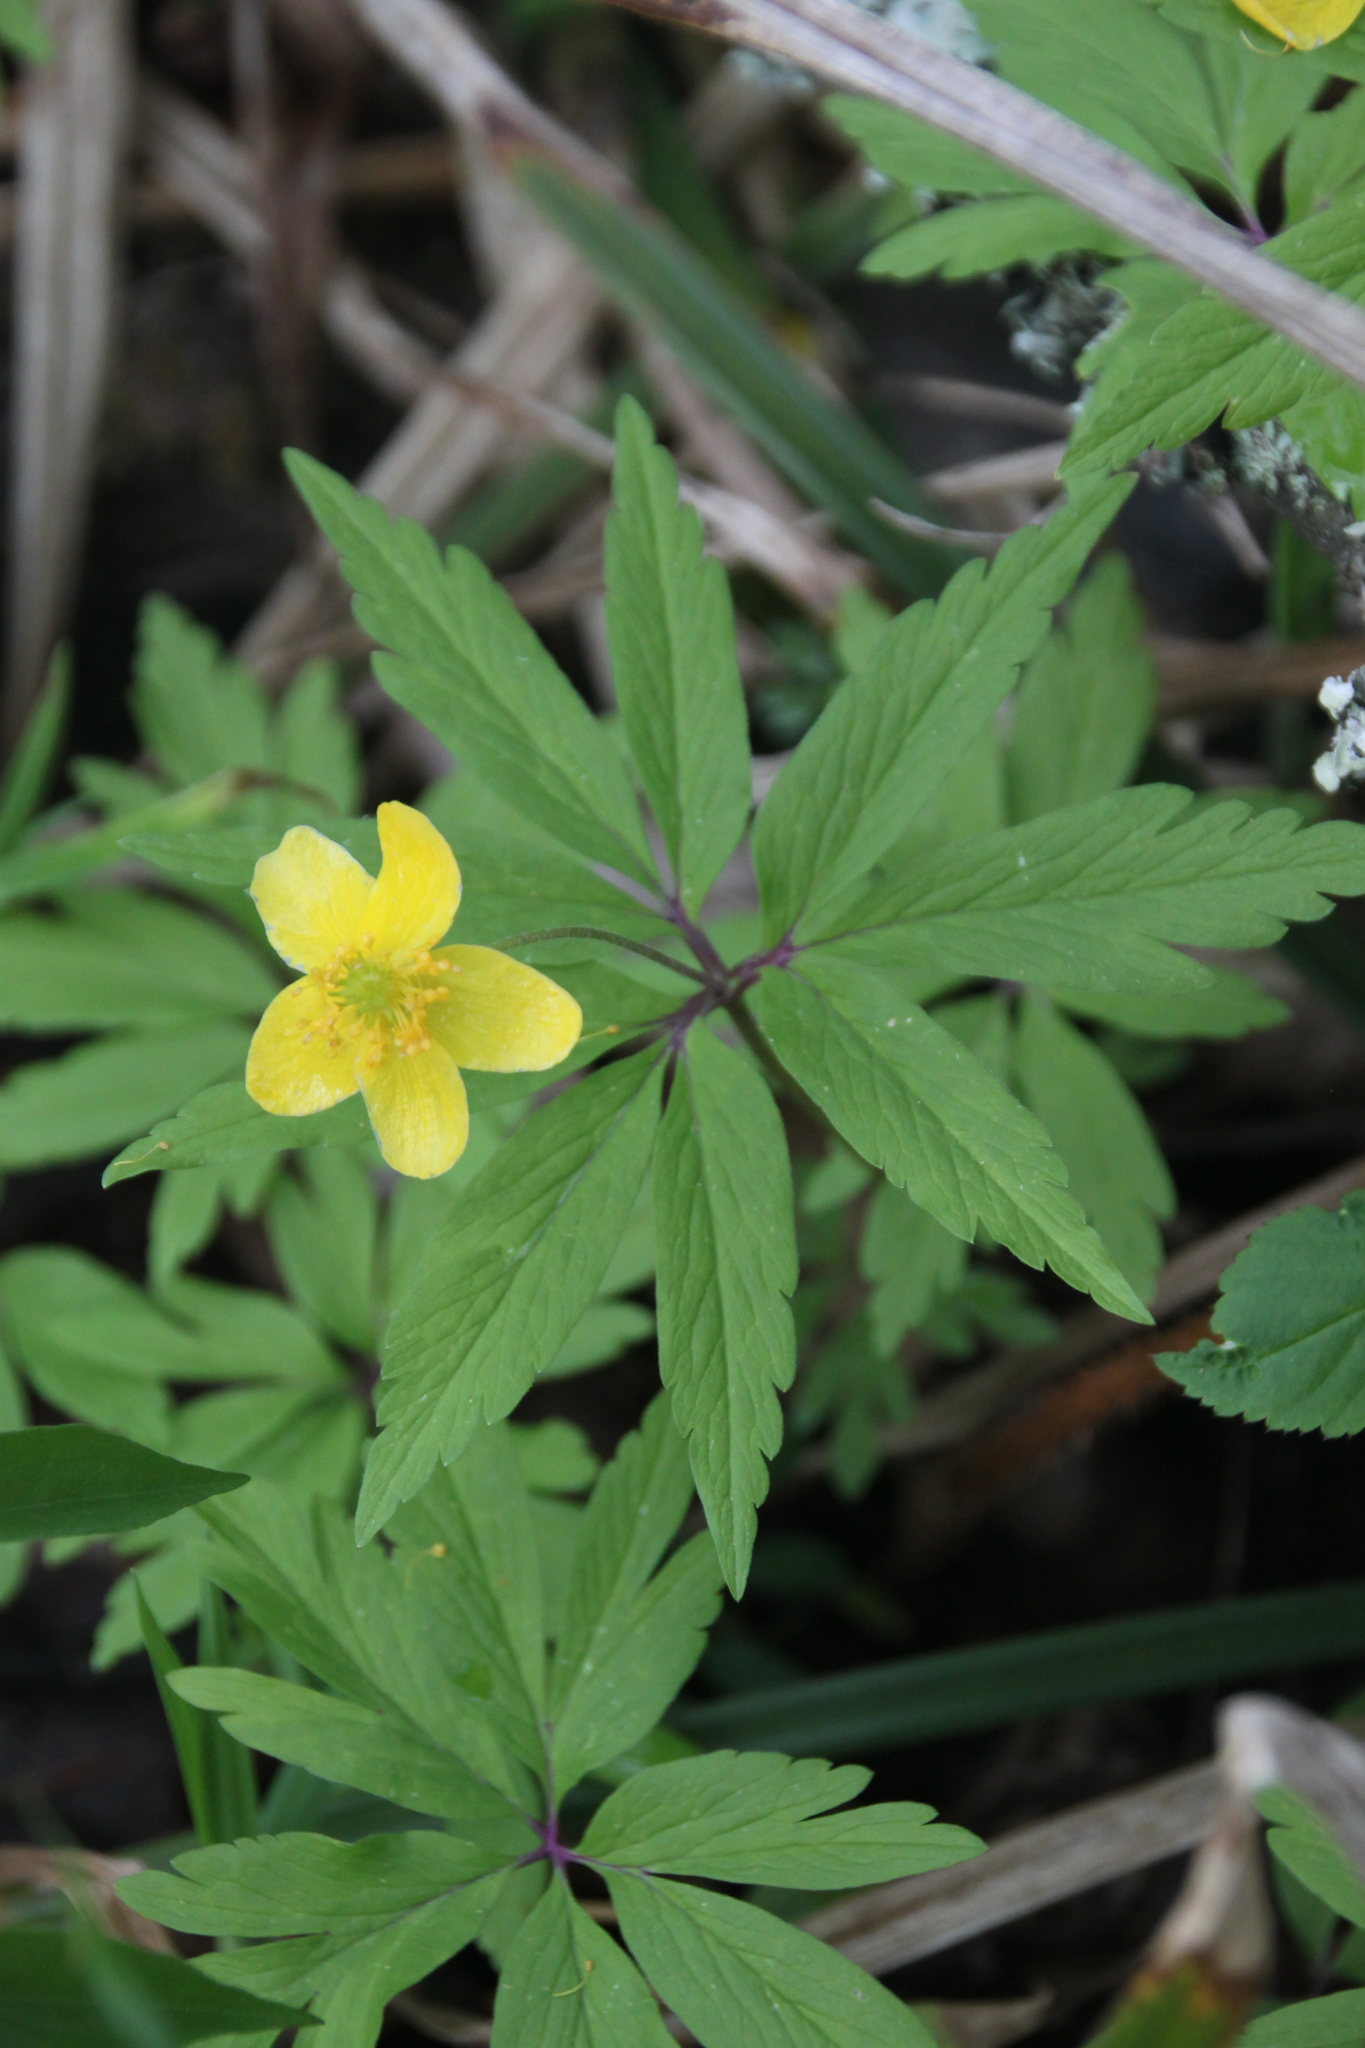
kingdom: Plantae
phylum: Tracheophyta
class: Magnoliopsida
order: Ranunculales
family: Ranunculaceae
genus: Anemone
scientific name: Anemone ranunculoides
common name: Yellow anemone
